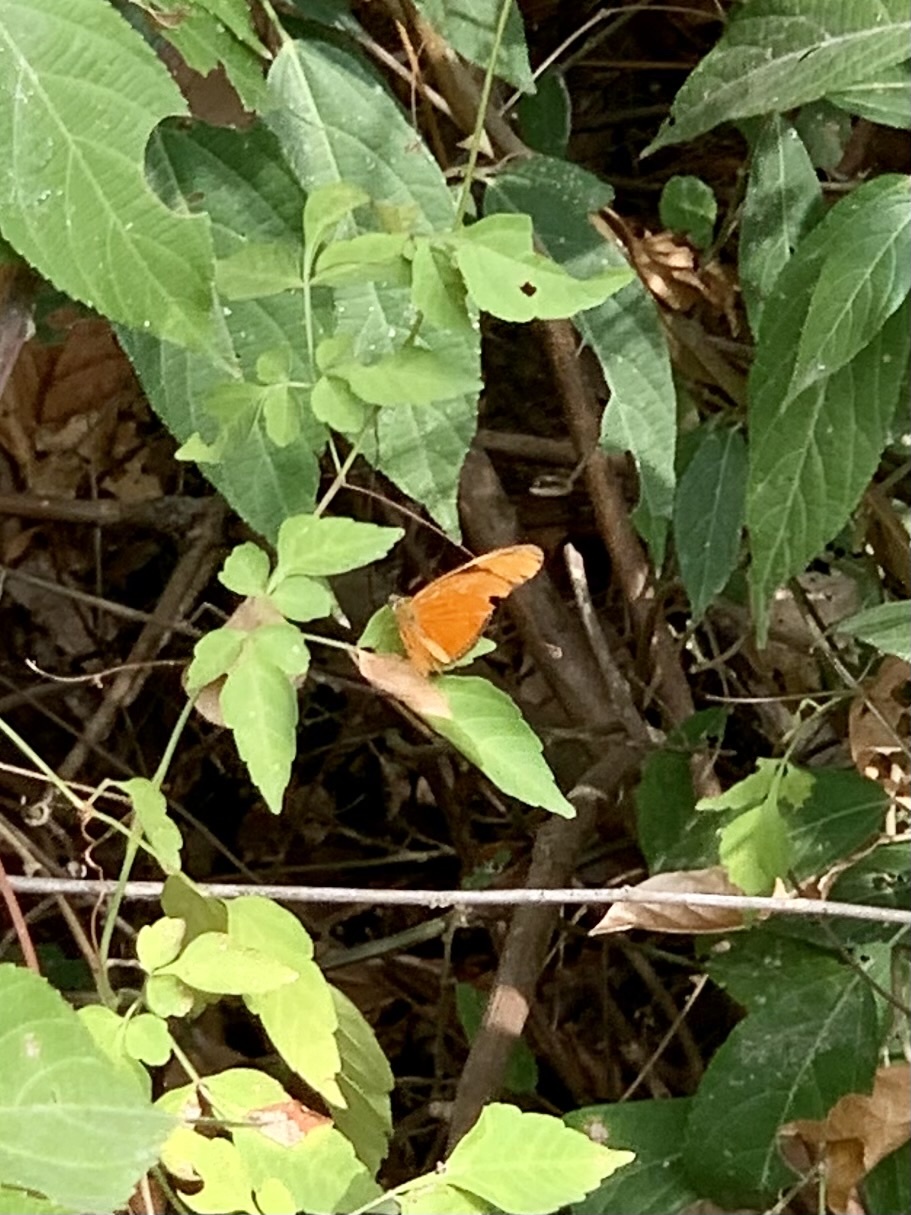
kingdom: Animalia
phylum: Arthropoda
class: Insecta
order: Lepidoptera
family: Nymphalidae
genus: Dryas
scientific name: Dryas iulia
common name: Flambeau
